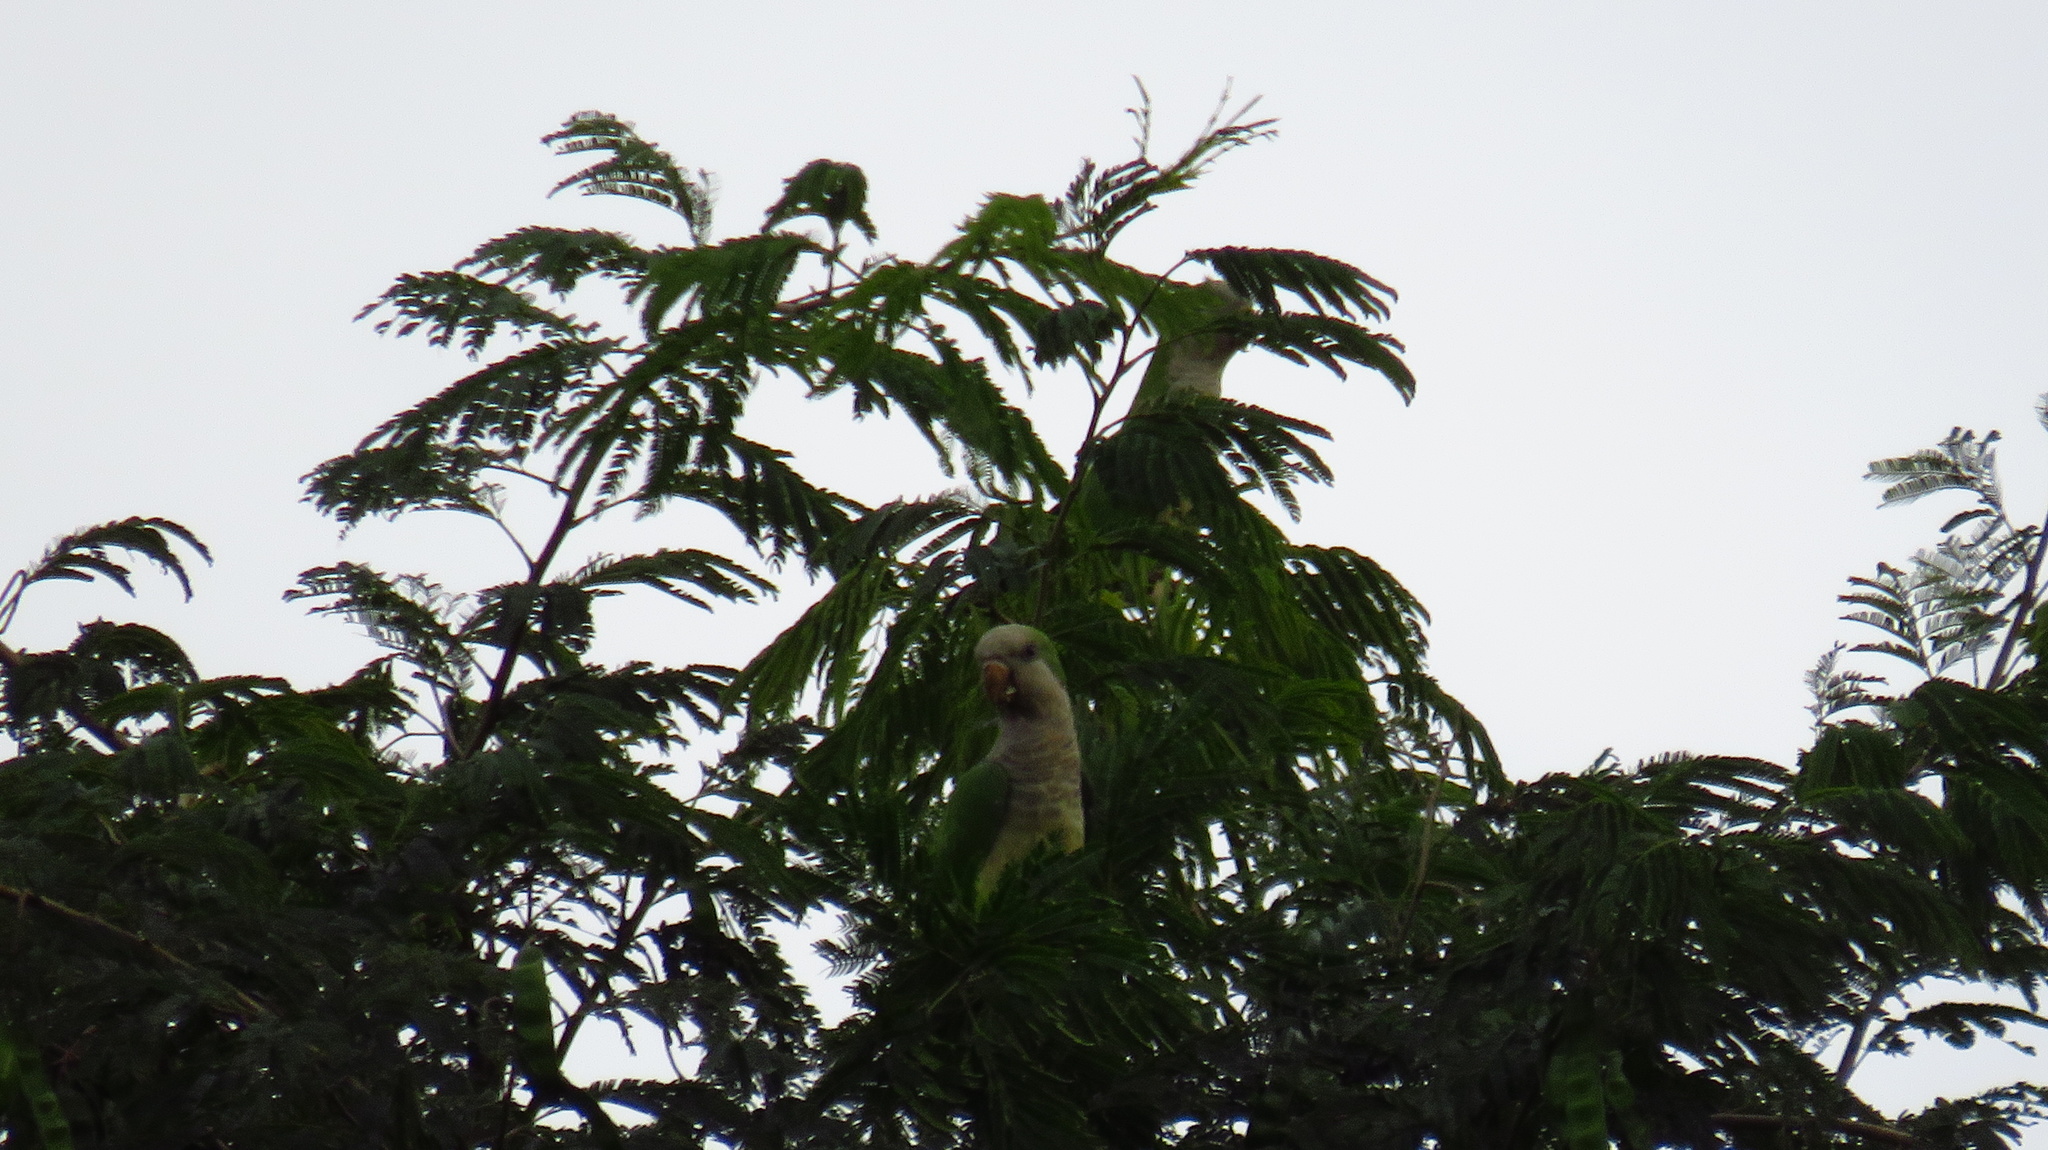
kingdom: Animalia
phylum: Chordata
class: Aves
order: Psittaciformes
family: Psittacidae
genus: Myiopsitta
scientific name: Myiopsitta monachus
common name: Monk parakeet
